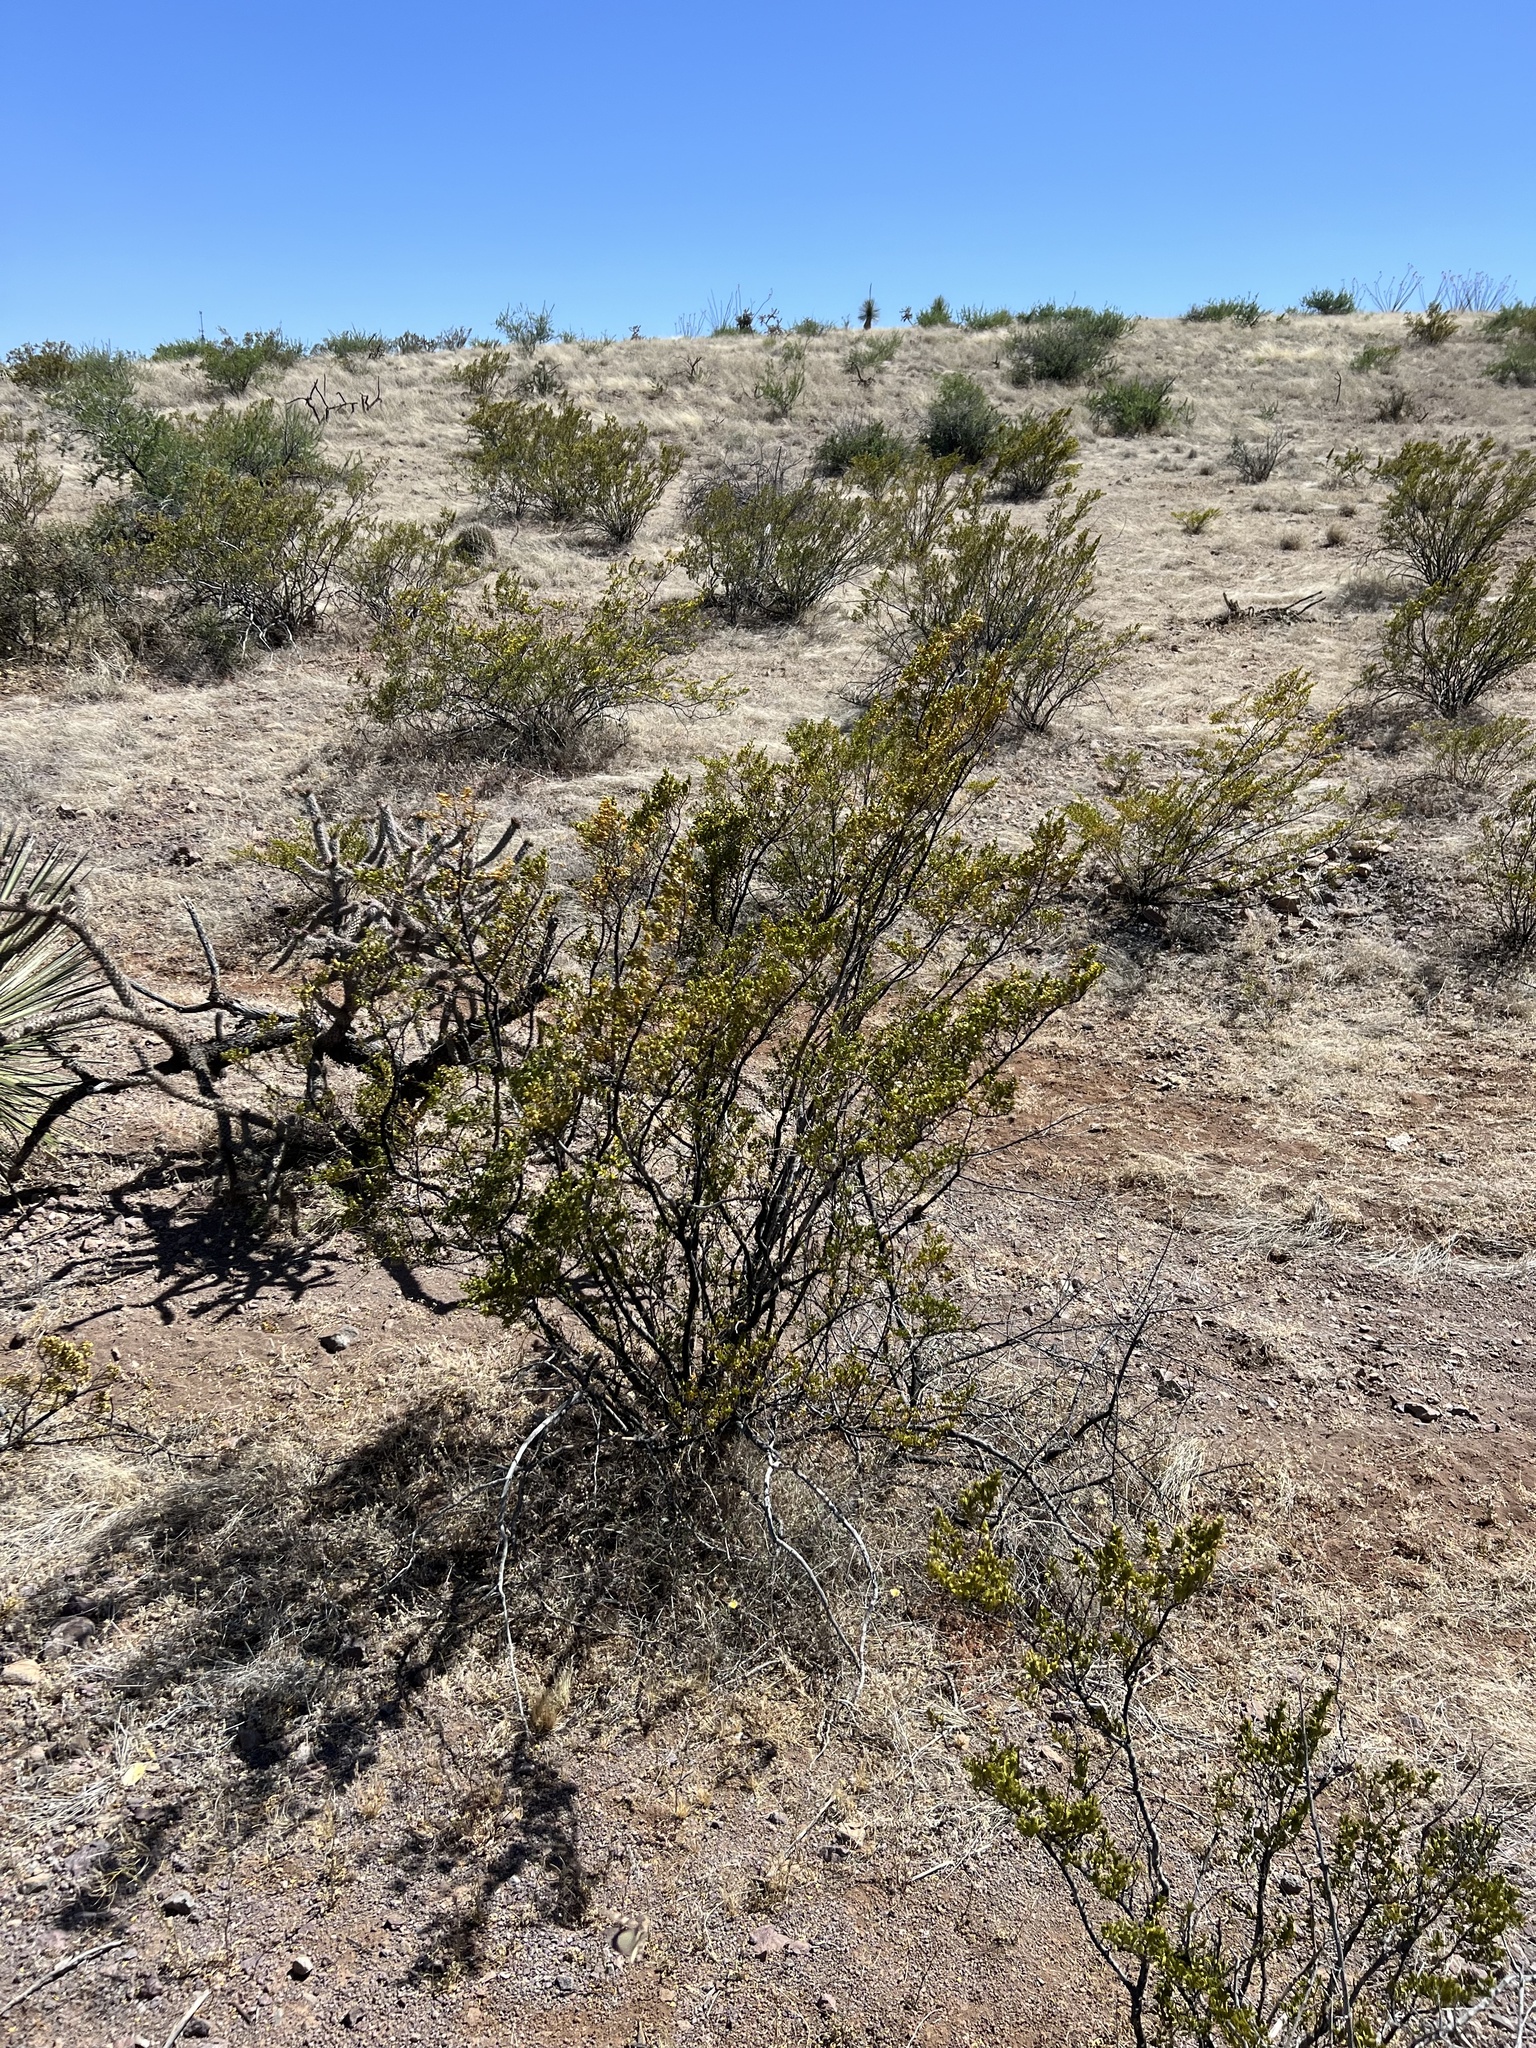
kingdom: Plantae
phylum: Tracheophyta
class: Magnoliopsida
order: Zygophyllales
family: Zygophyllaceae
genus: Larrea
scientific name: Larrea tridentata
